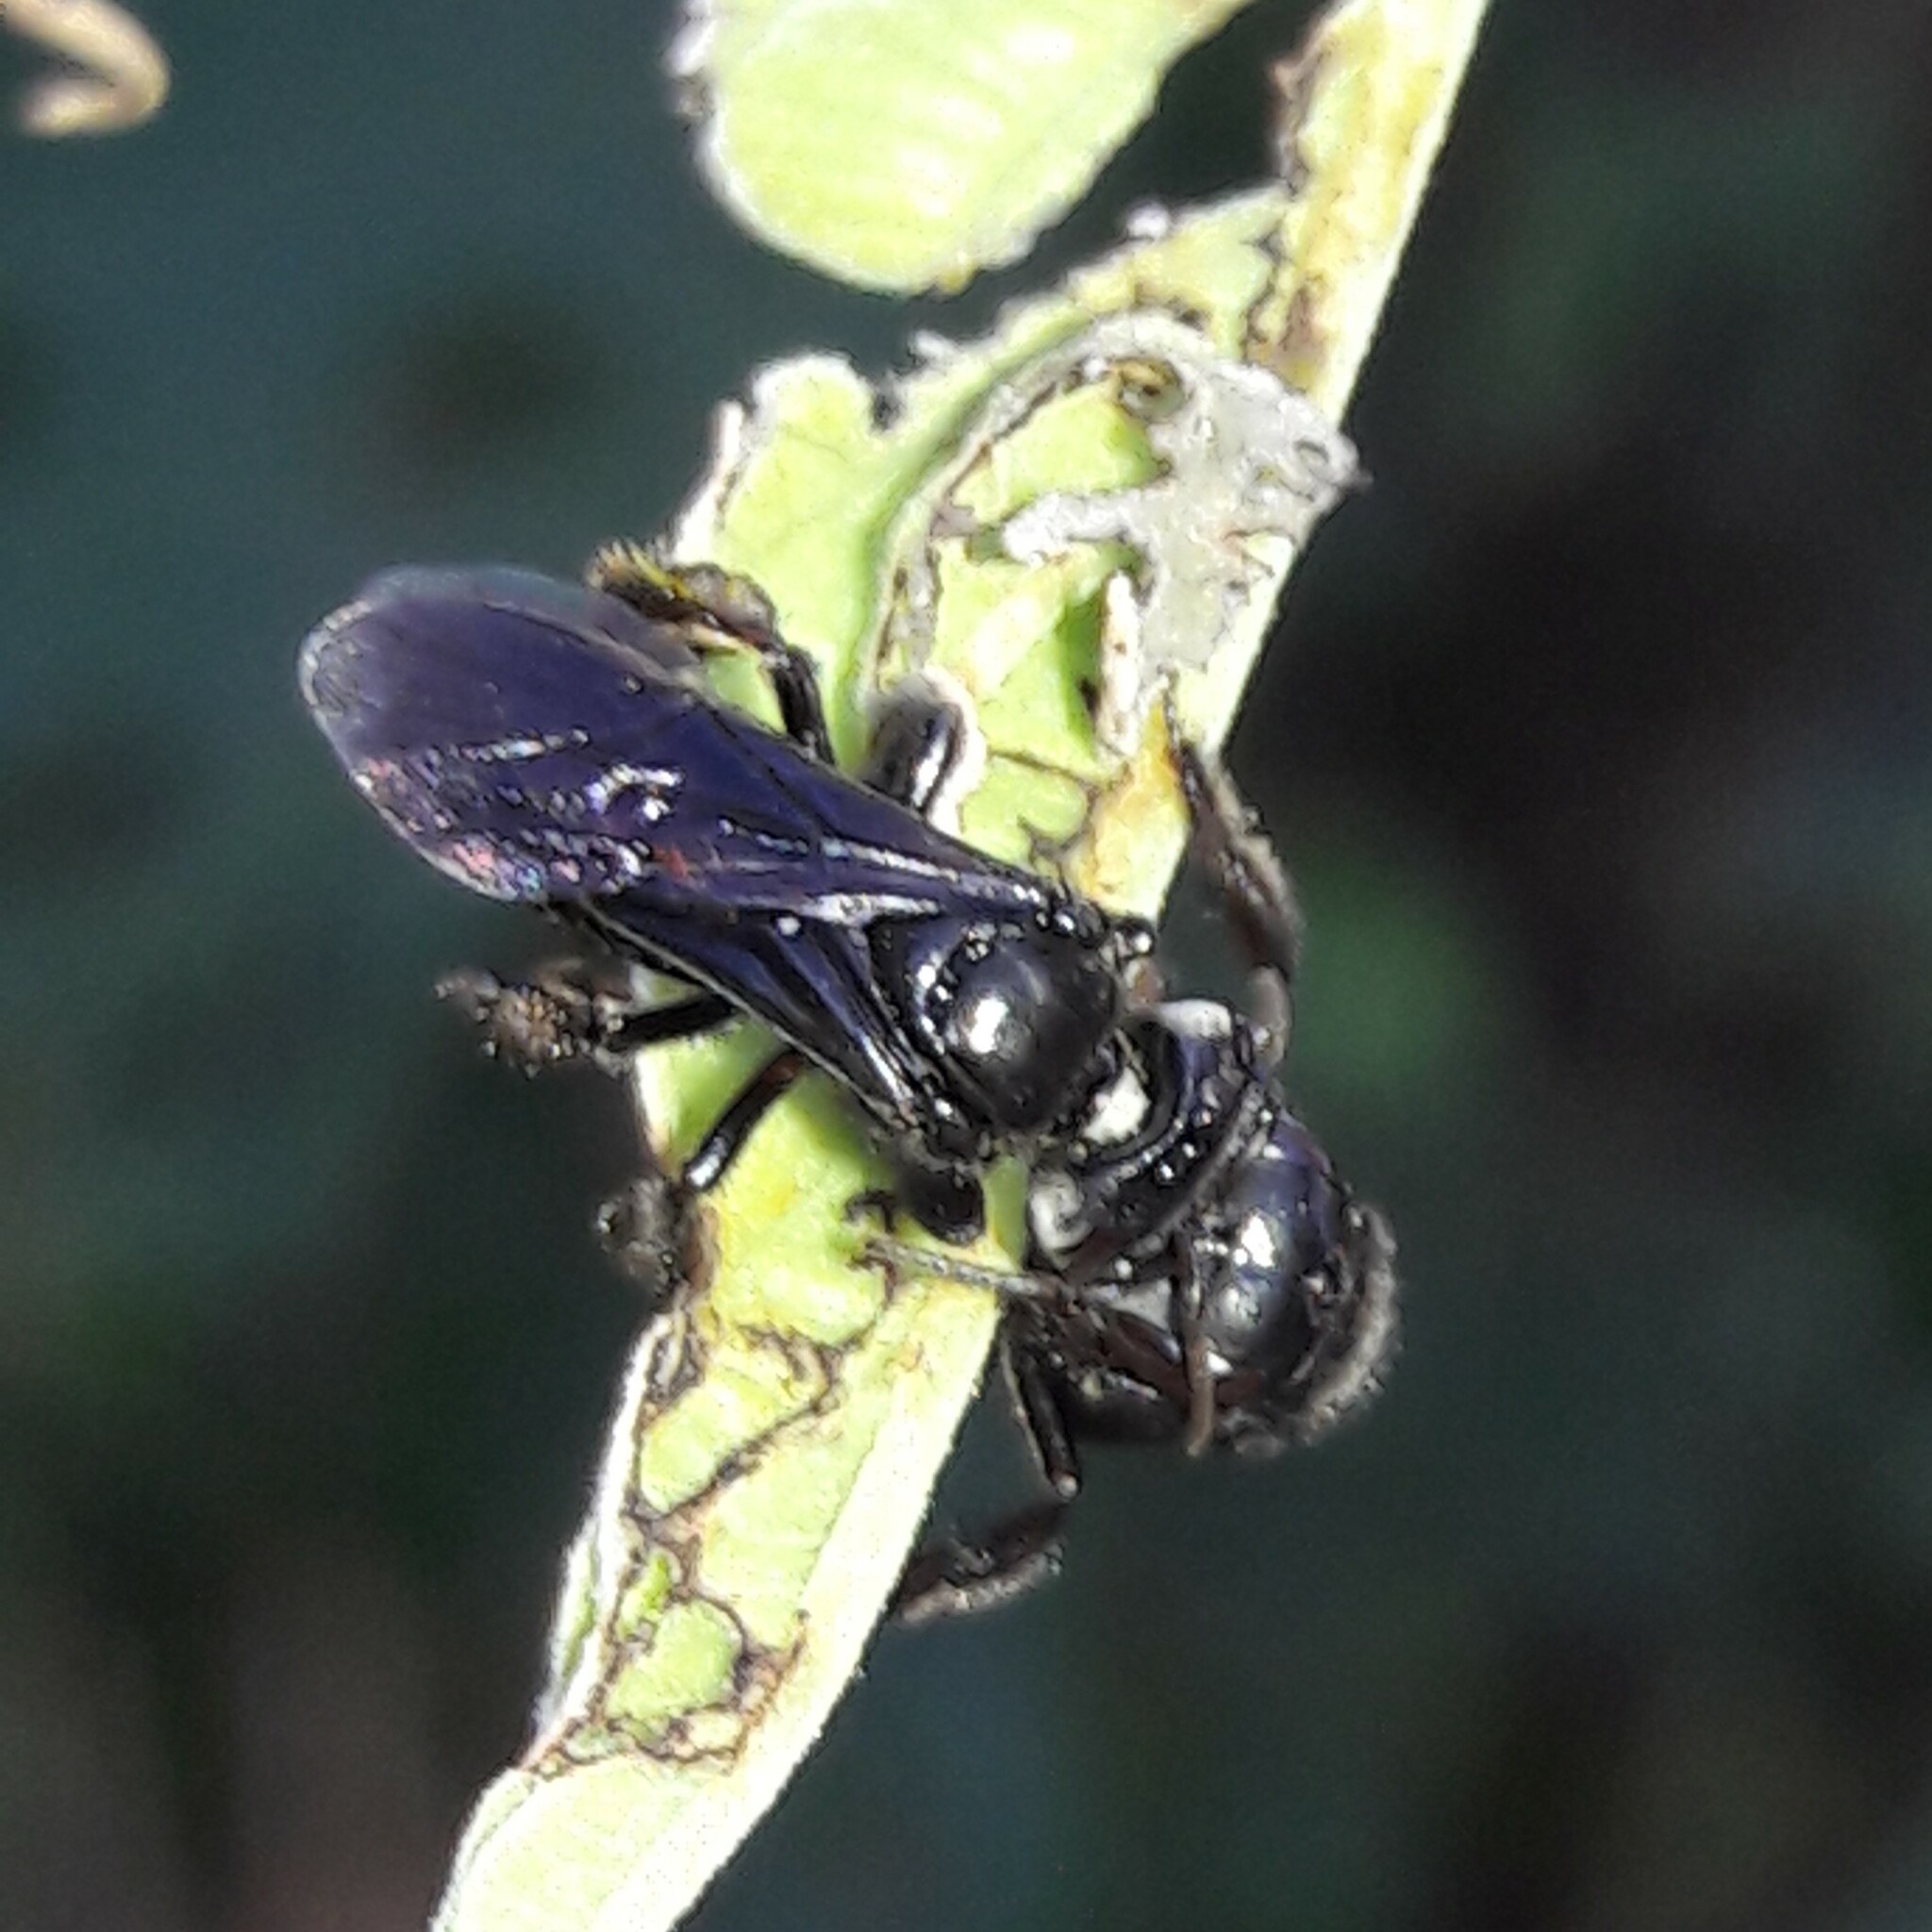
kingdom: Animalia
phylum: Arthropoda
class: Insecta
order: Hymenoptera
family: Apidae
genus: Trigona
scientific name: Trigona spinipes
